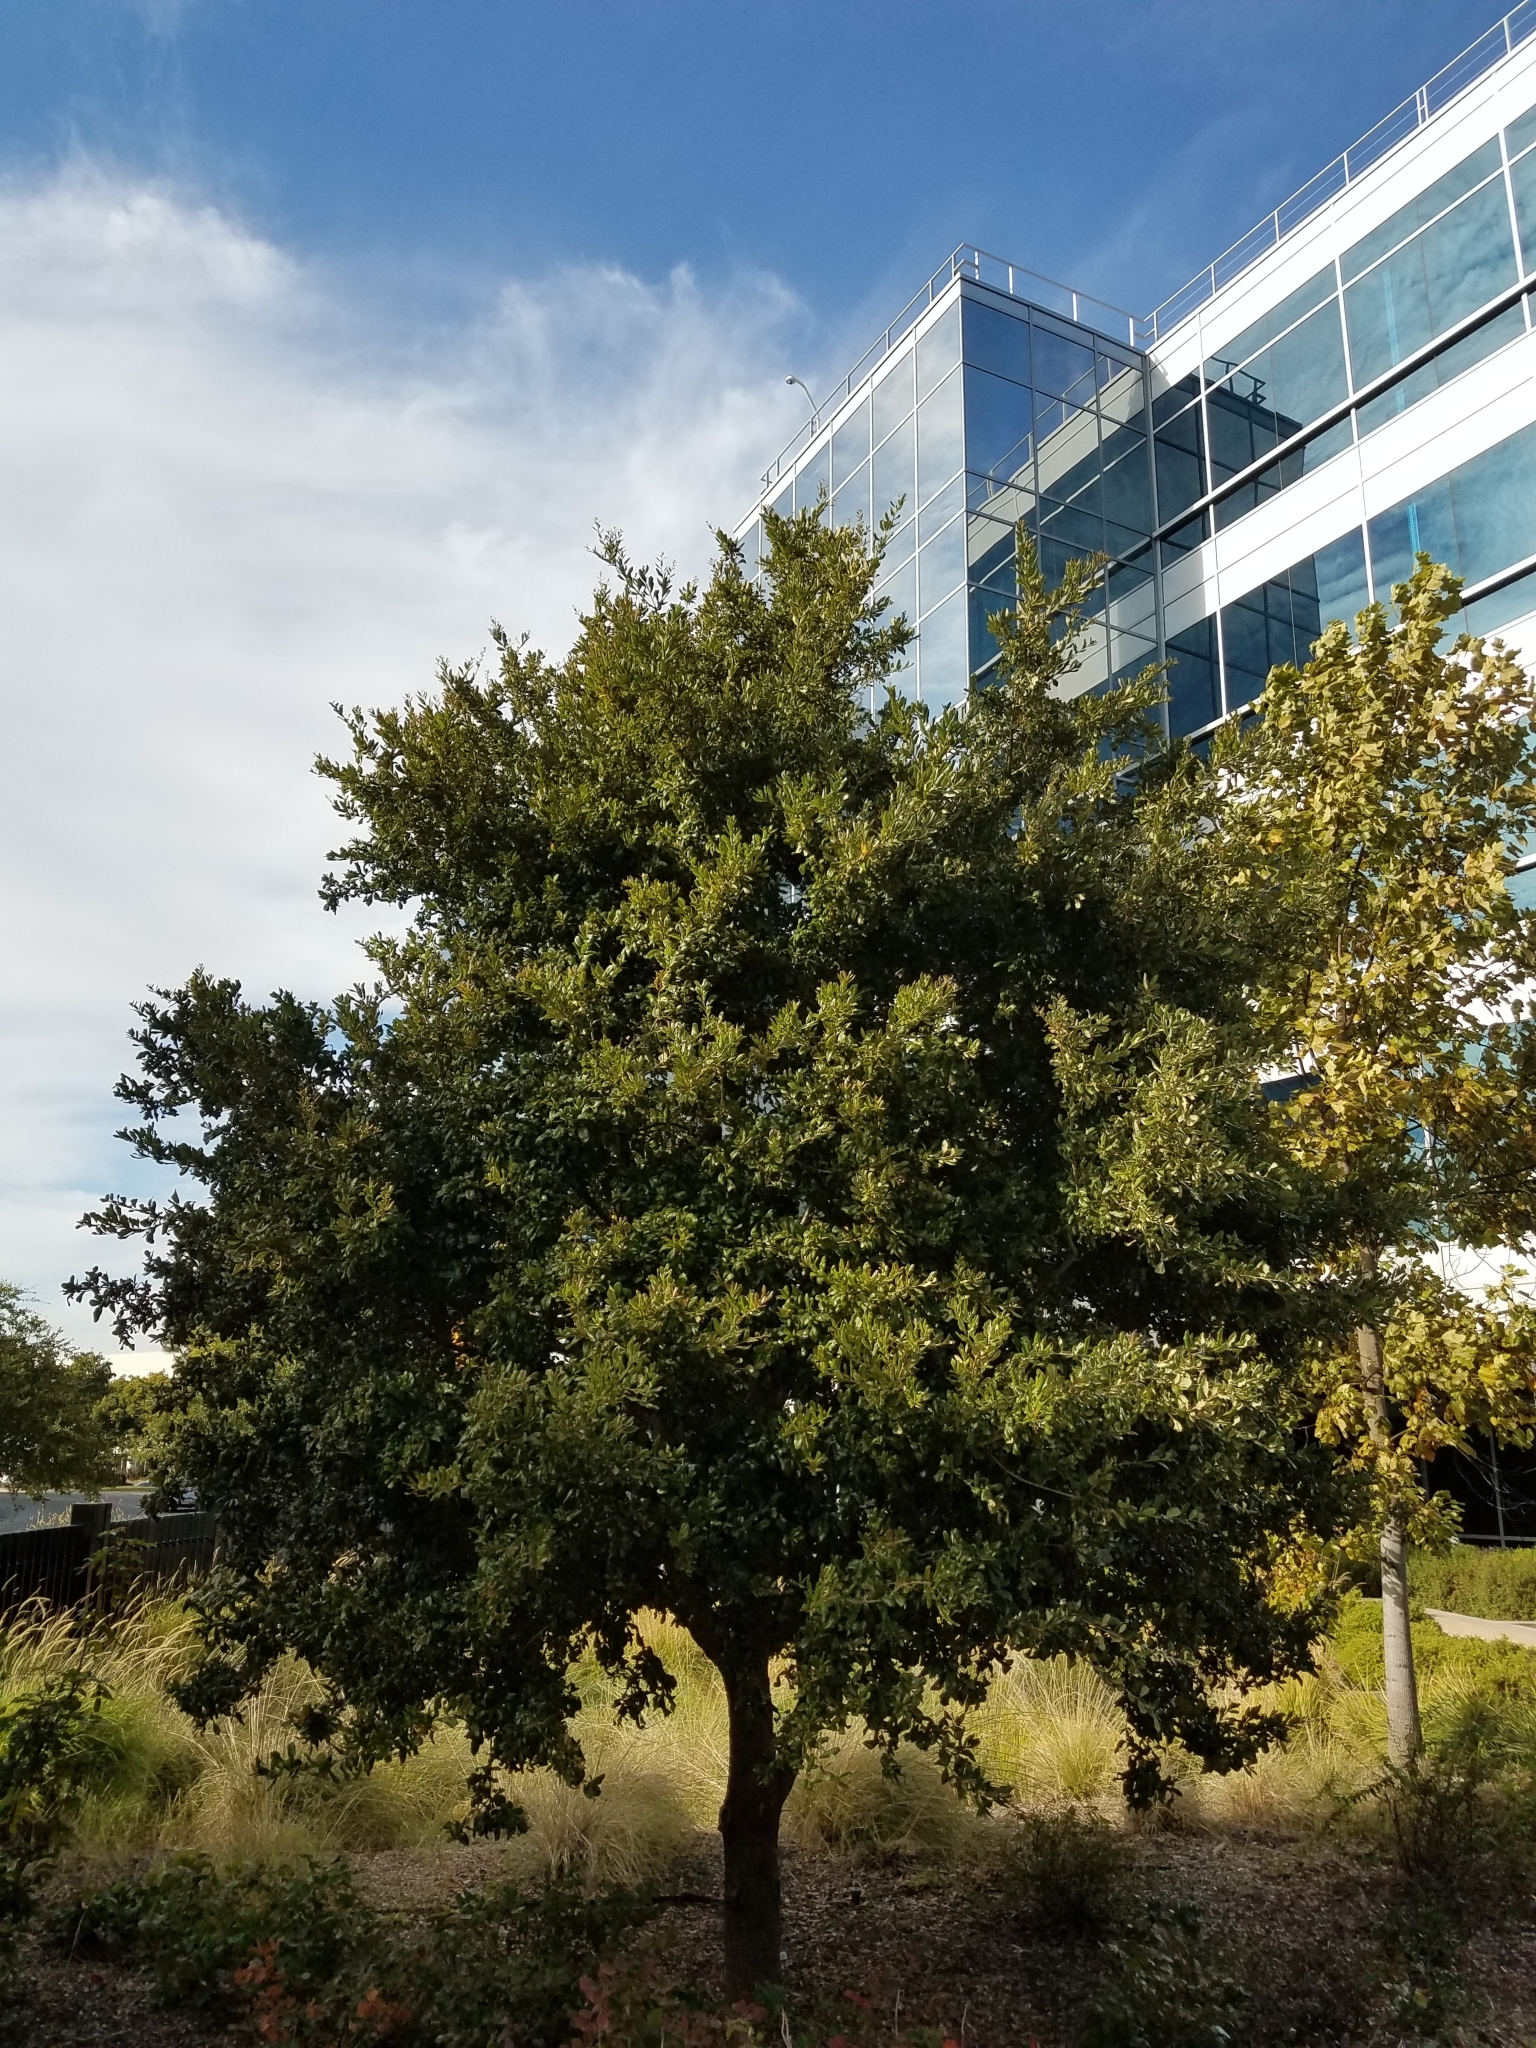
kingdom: Animalia
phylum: Arthropoda
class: Insecta
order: Hymenoptera
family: Cynipidae
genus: Andricus
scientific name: Andricus Druon quercuslanigerum
